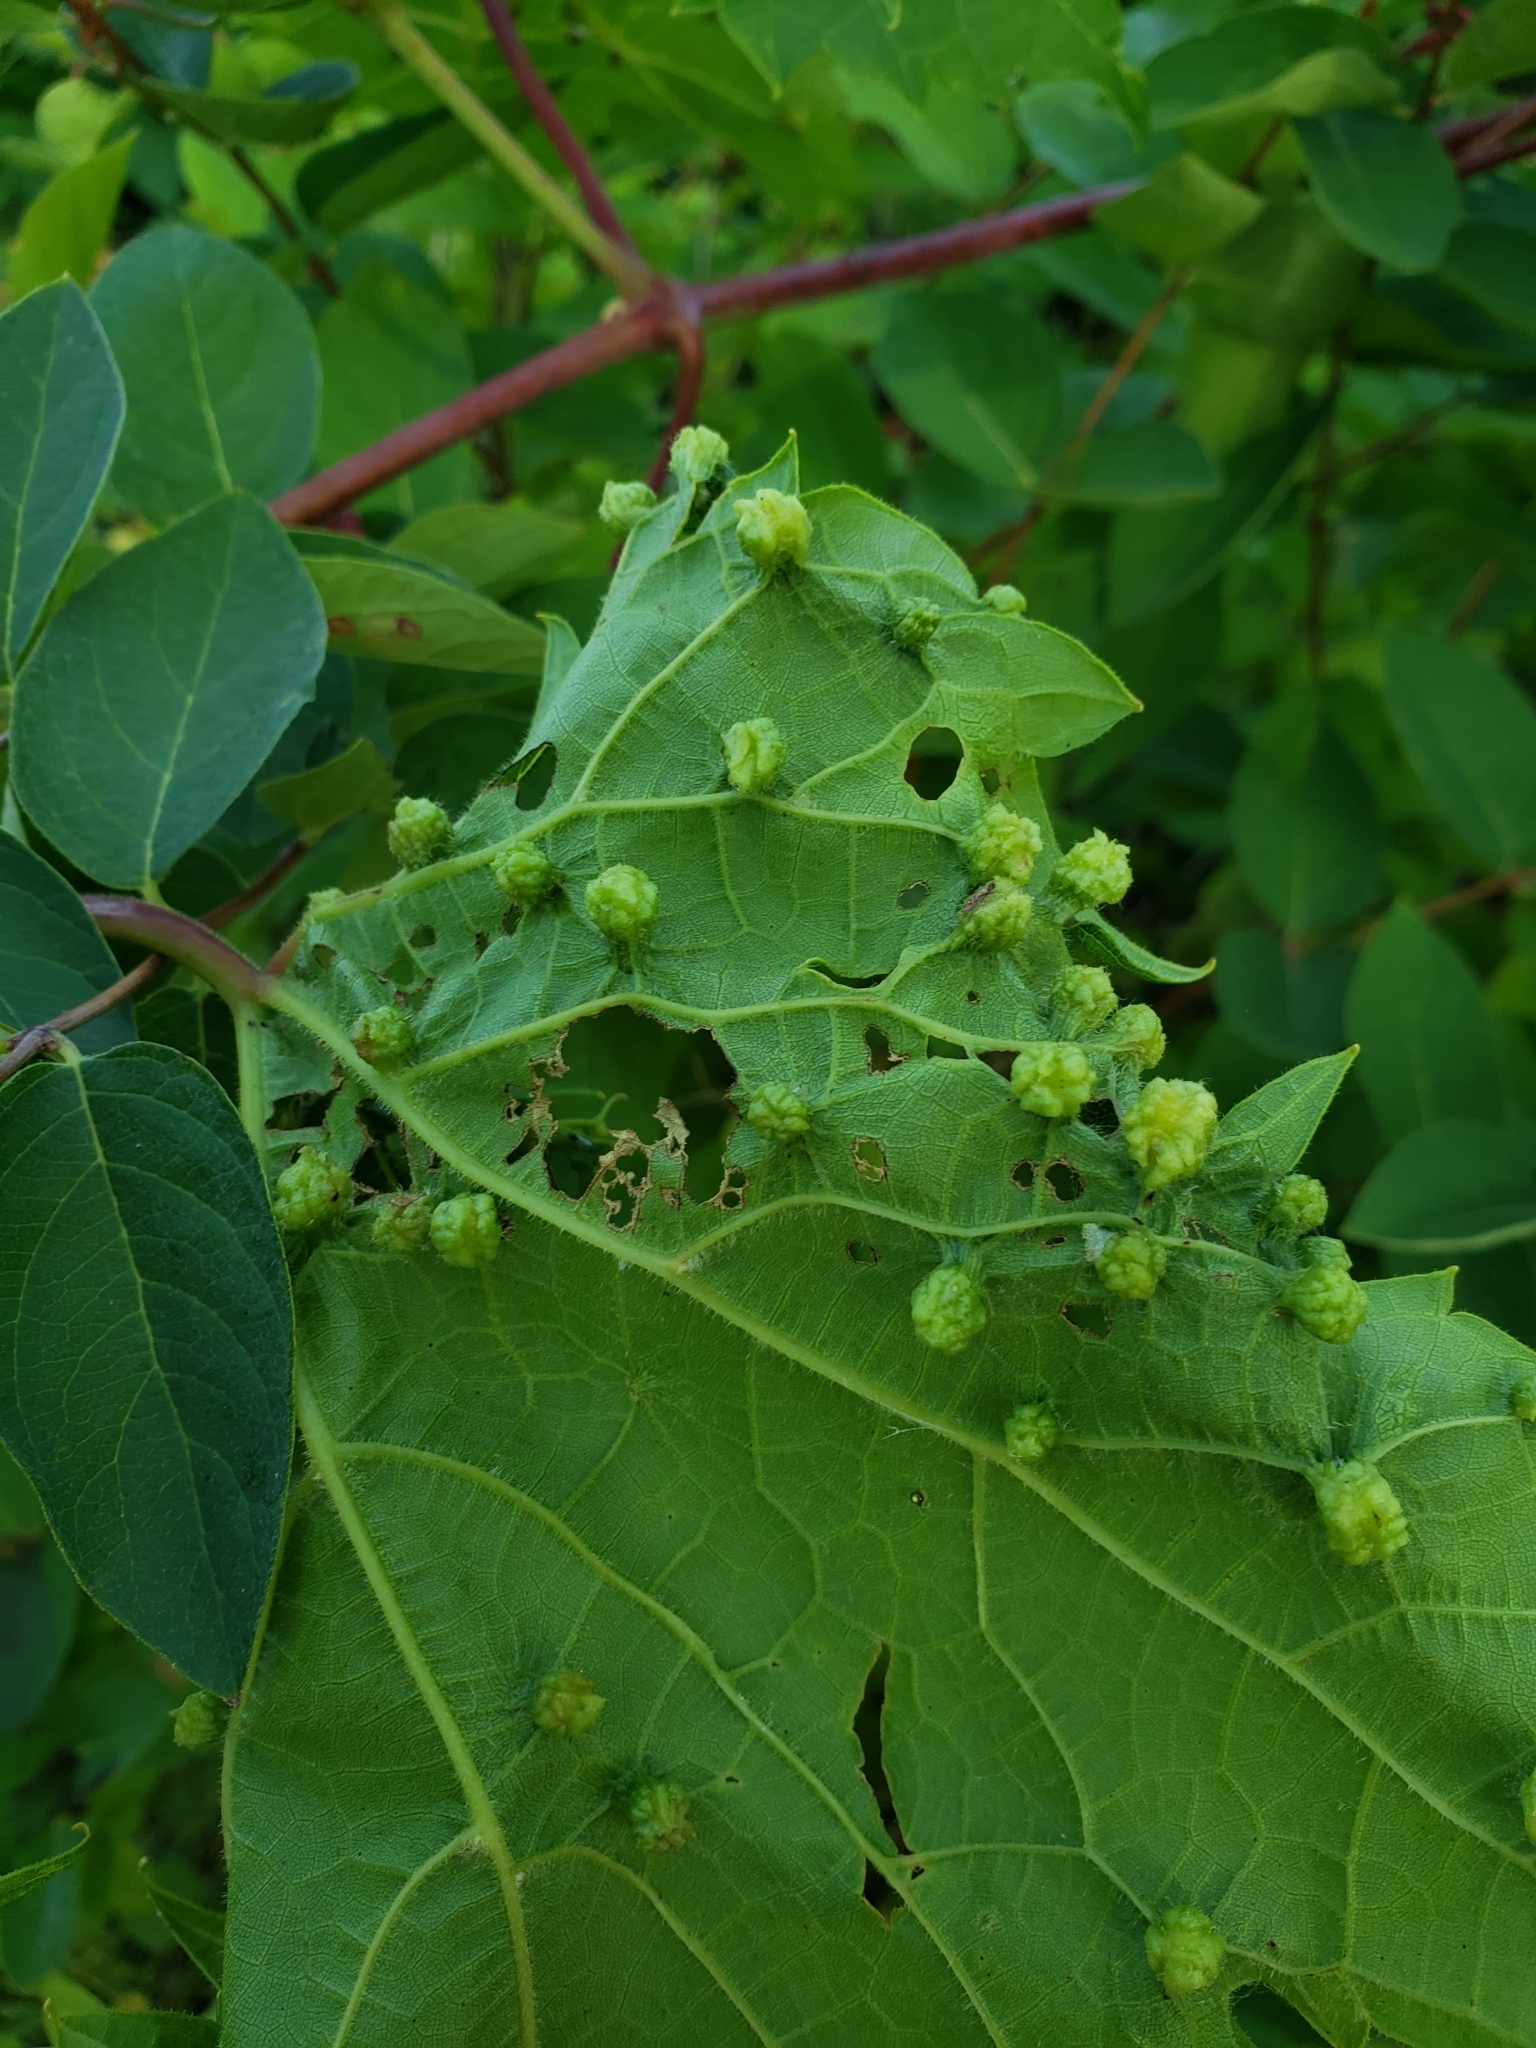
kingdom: Animalia
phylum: Arthropoda
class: Insecta
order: Hemiptera
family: Phylloxeridae
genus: Daktulosphaira
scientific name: Daktulosphaira vitifoliae
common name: Grape phylloxera
